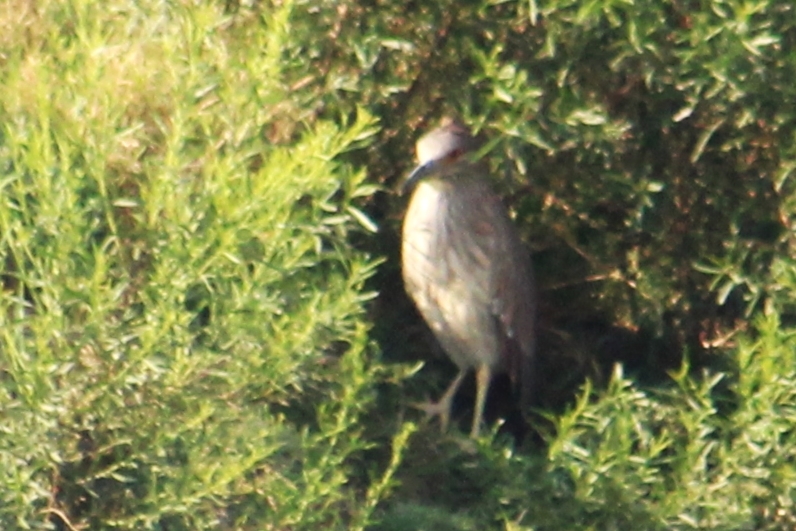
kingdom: Animalia
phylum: Chordata
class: Aves
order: Pelecaniformes
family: Ardeidae
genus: Nycticorax
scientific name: Nycticorax nycticorax
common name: Black-crowned night heron
